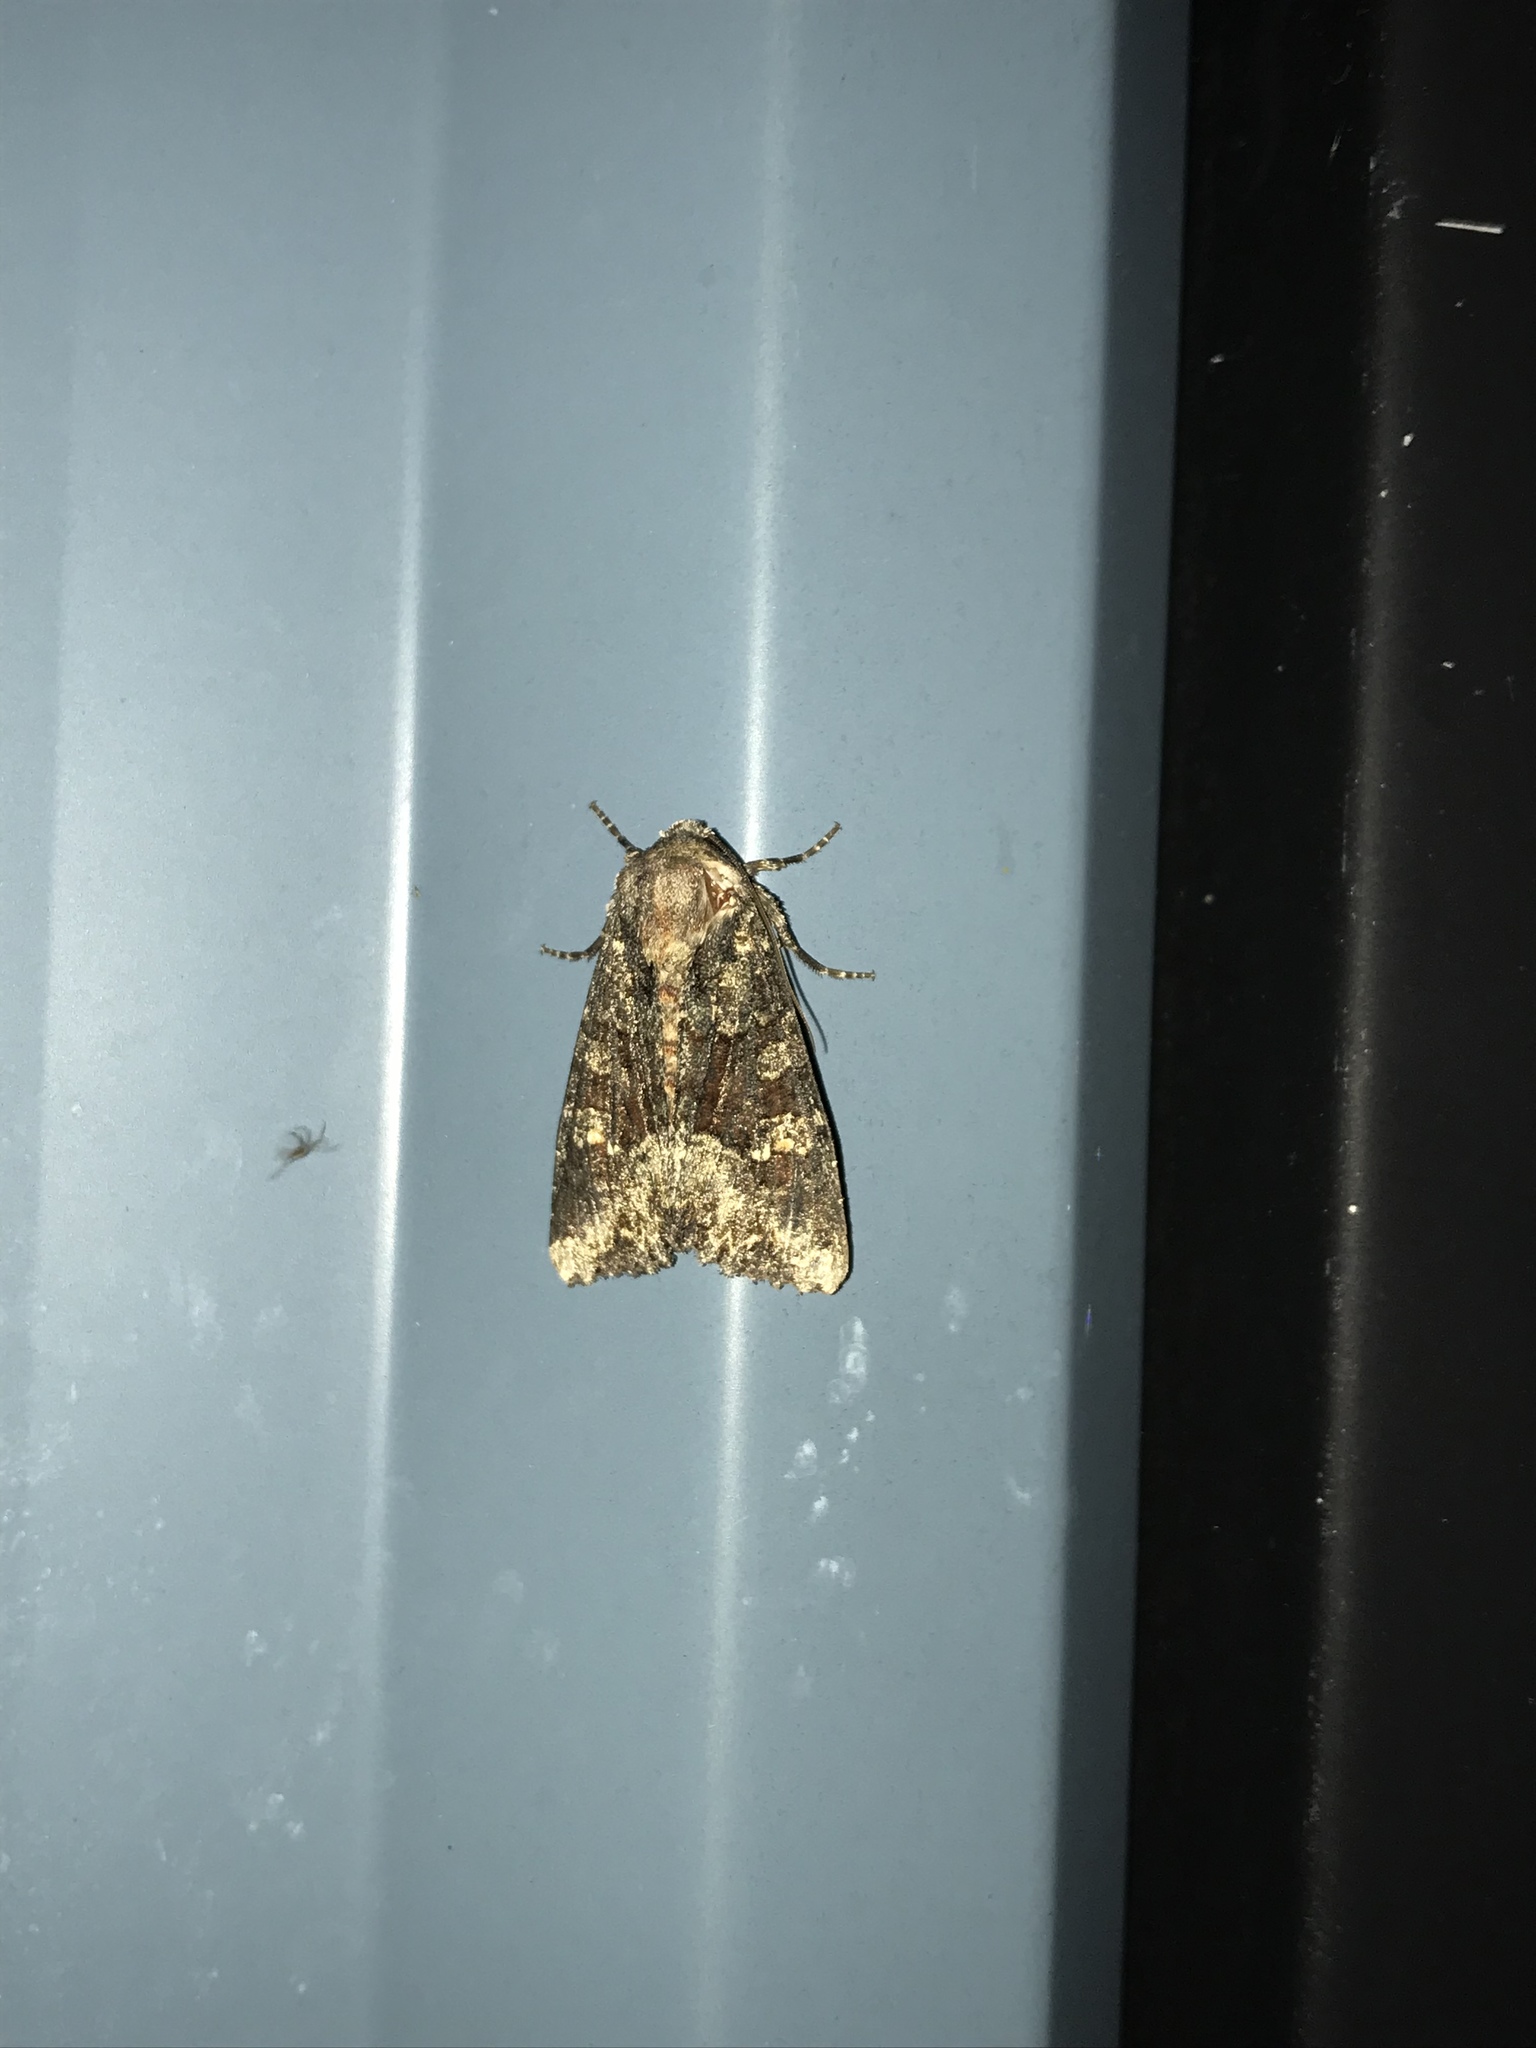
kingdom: Animalia
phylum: Arthropoda
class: Insecta
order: Lepidoptera
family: Noctuidae
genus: Apamea
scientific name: Apamea amputatrix
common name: Yellow-headed cutworm moth
